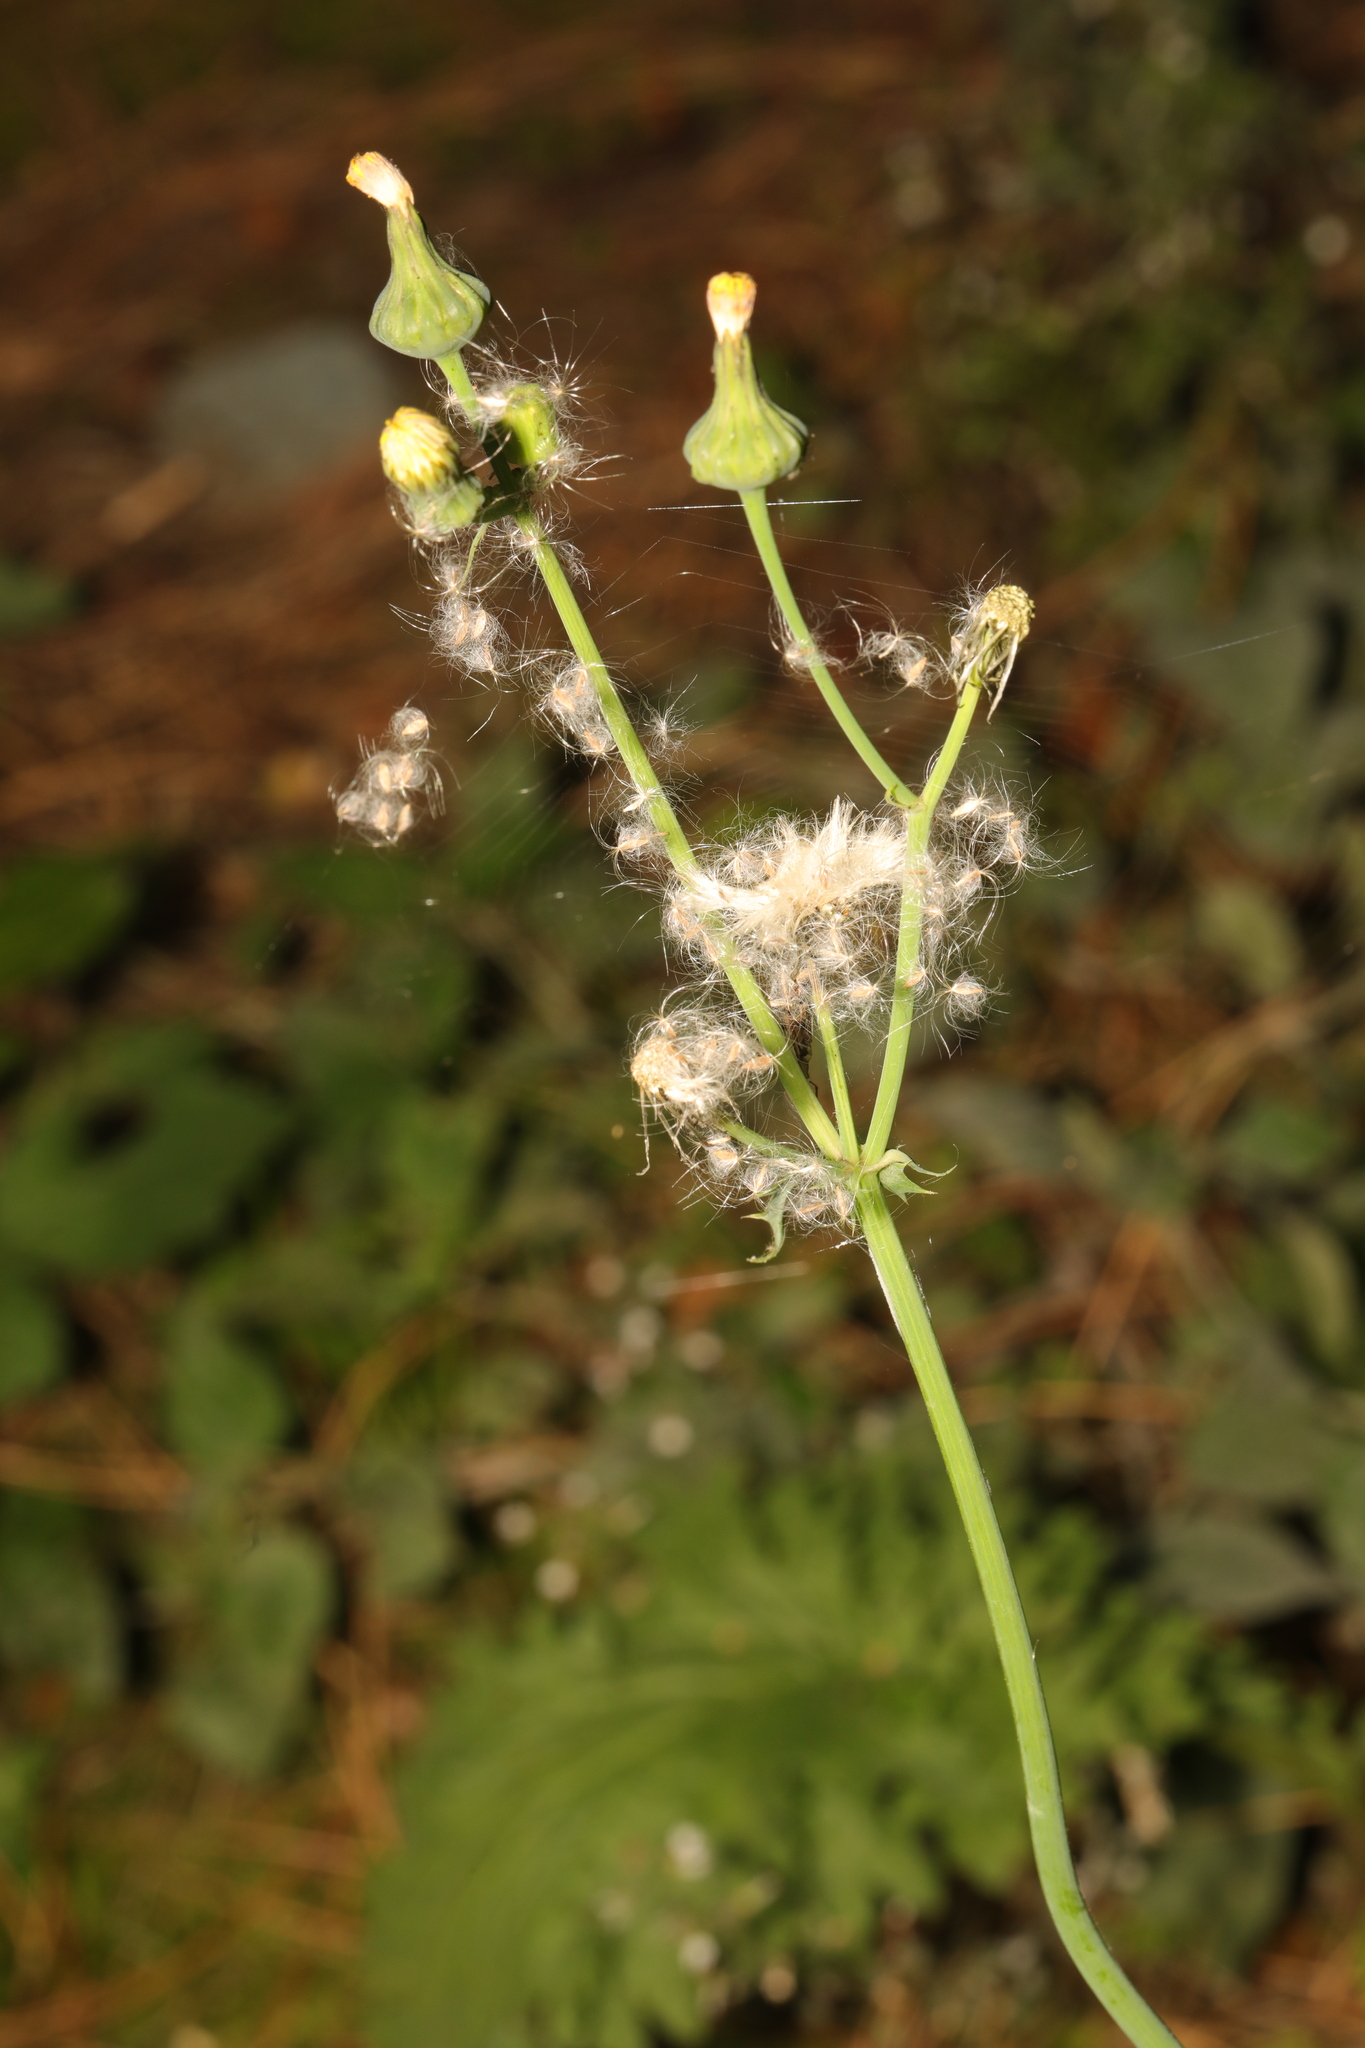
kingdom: Plantae
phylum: Tracheophyta
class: Magnoliopsida
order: Asterales
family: Asteraceae
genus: Sonchus
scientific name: Sonchus asper
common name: Prickly sow-thistle
